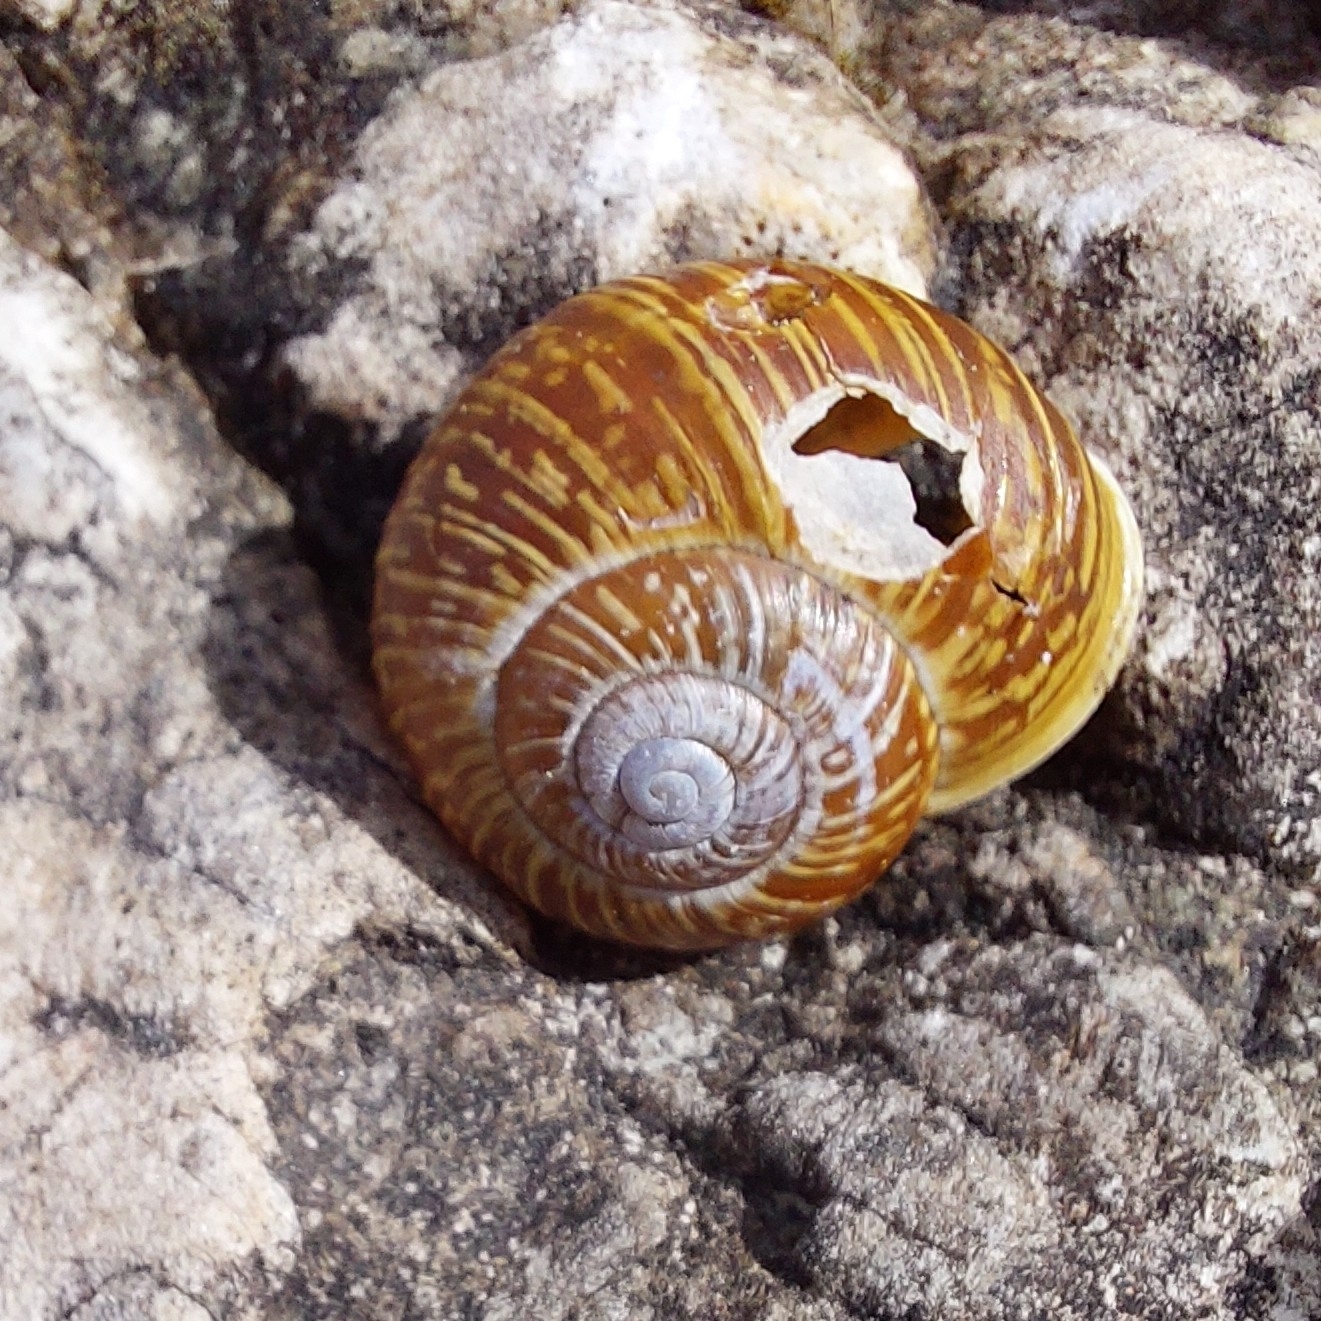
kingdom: Animalia
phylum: Mollusca
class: Gastropoda
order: Stylommatophora
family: Helicidae
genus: Arianta
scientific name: Arianta arbustorum
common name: Copse snail
